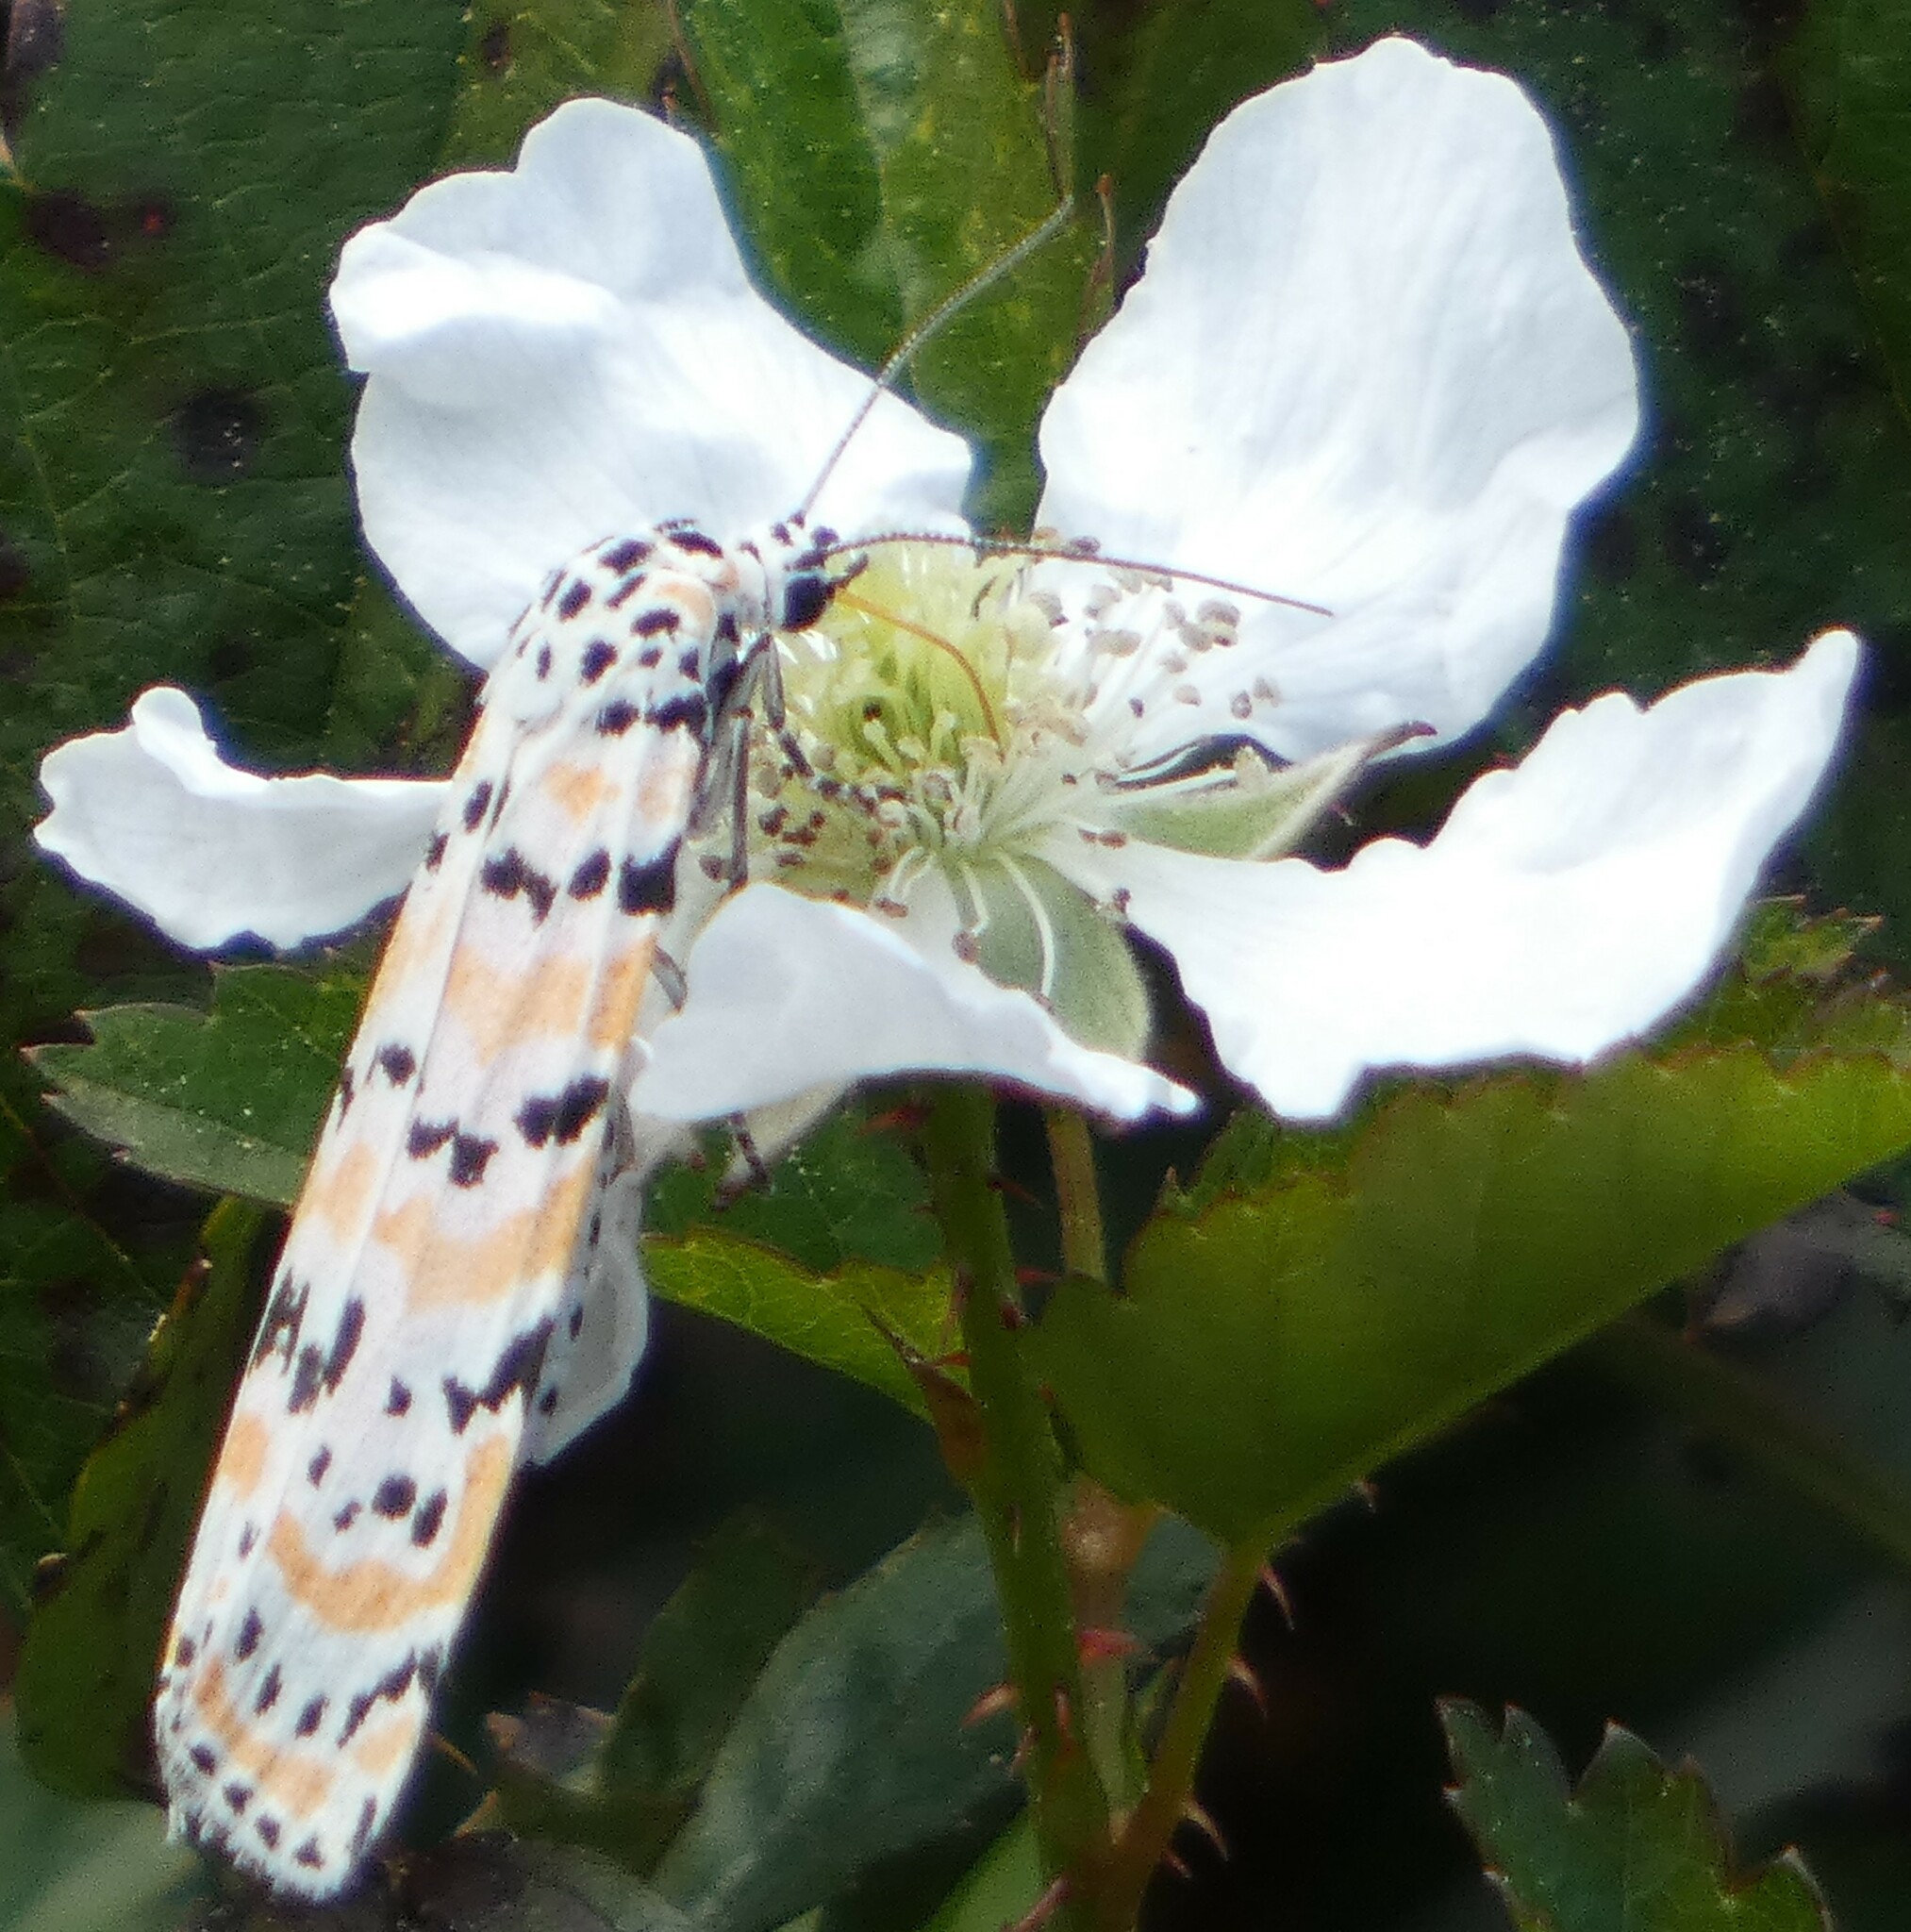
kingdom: Animalia
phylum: Arthropoda
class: Insecta
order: Lepidoptera
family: Erebidae
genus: Utetheisa
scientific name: Utetheisa ornatrix
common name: Beautiful utetheisa
